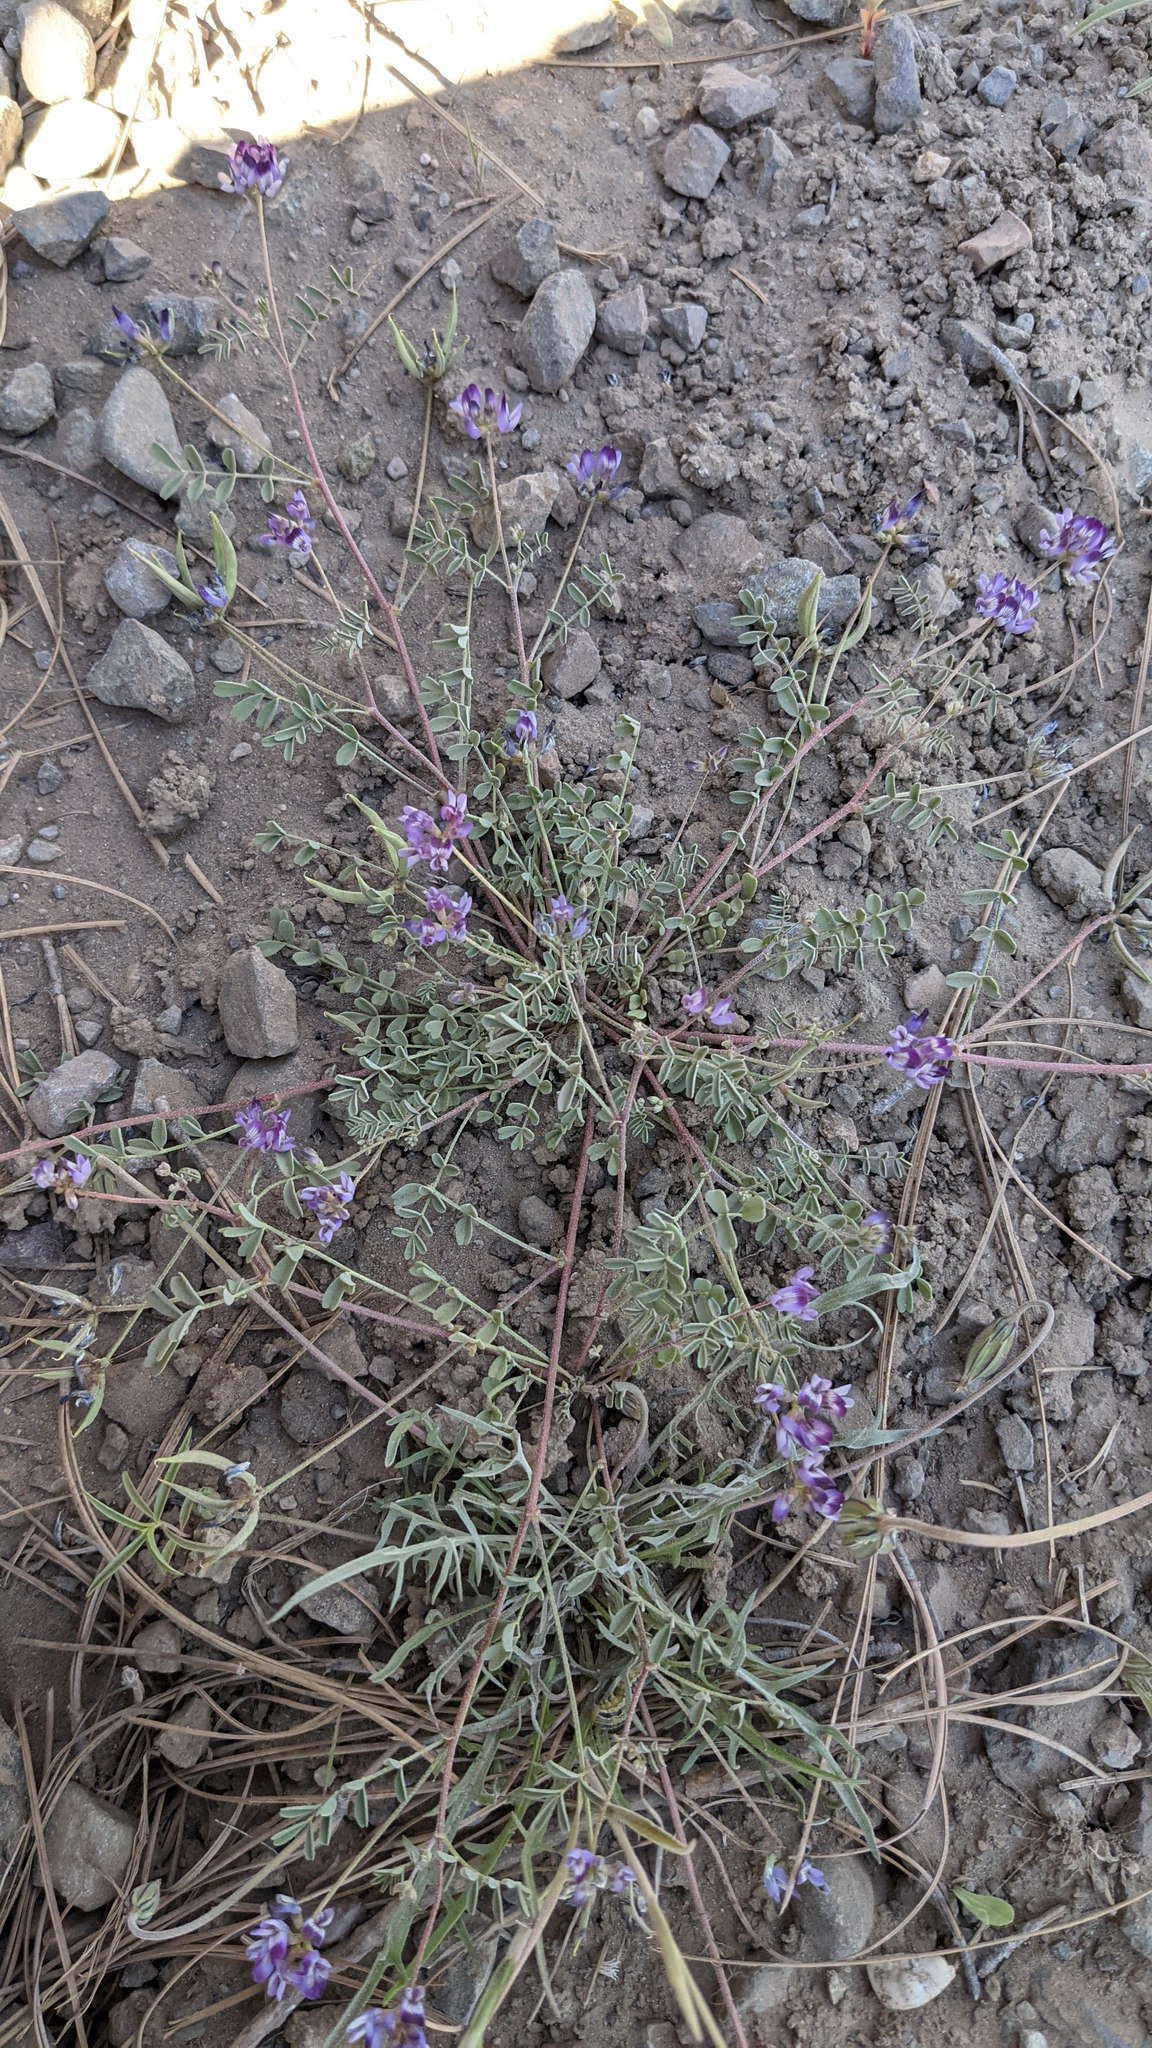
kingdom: Plantae
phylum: Tracheophyta
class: Magnoliopsida
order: Fabales
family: Fabaceae
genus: Astragalus
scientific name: Astragalus rattanii
